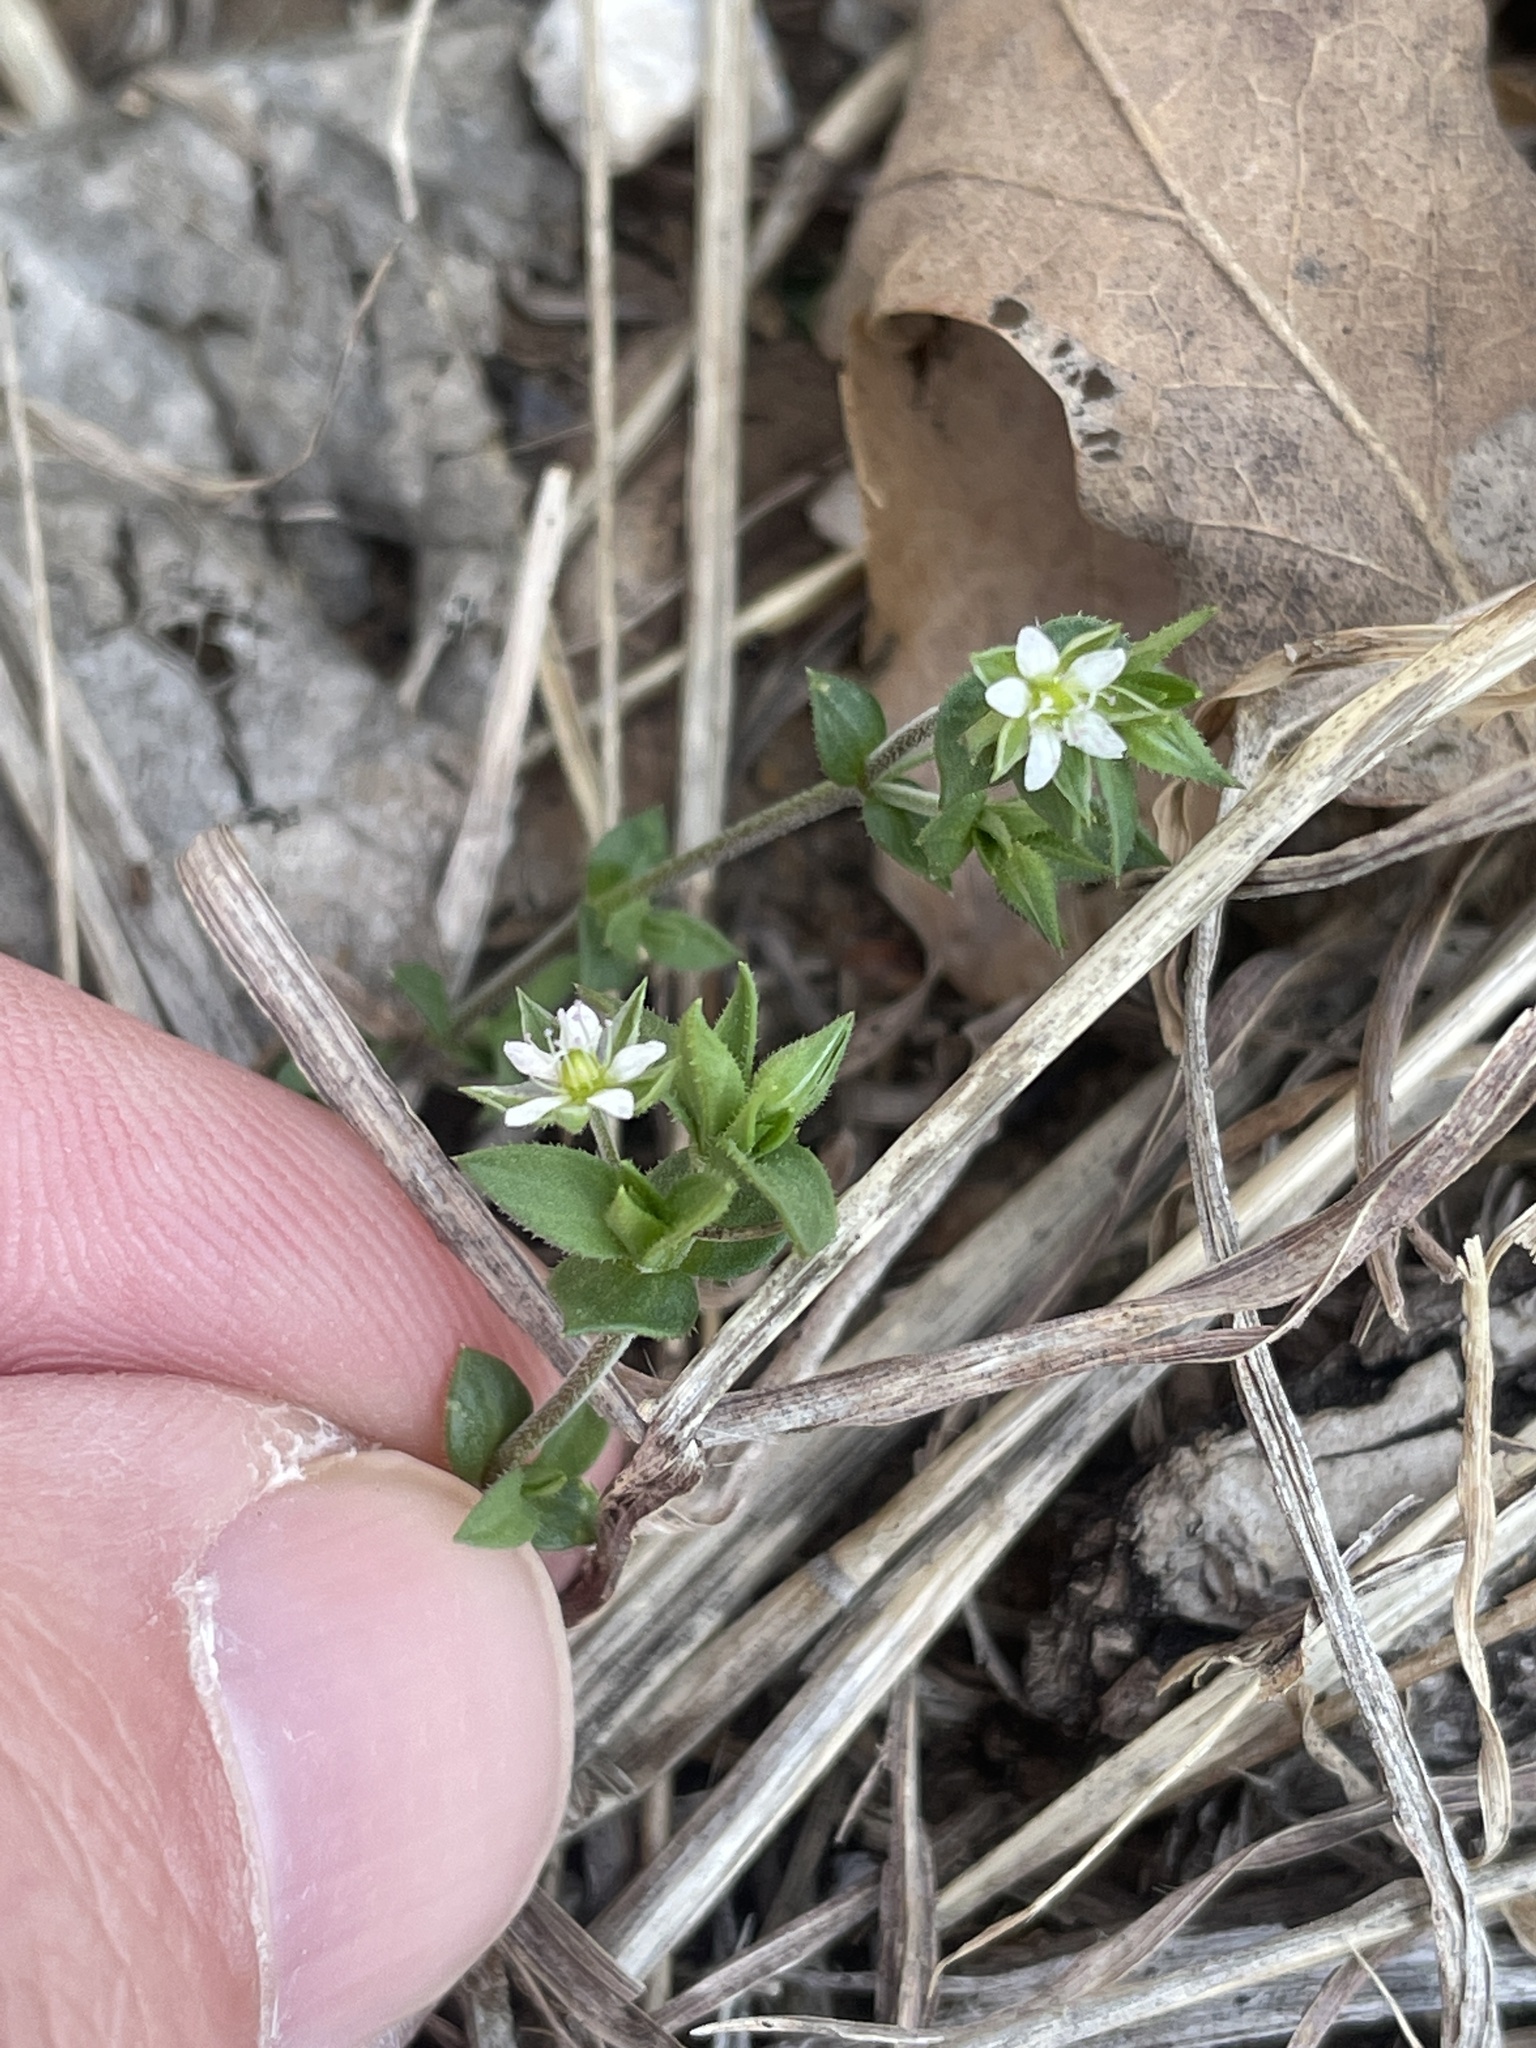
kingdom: Plantae
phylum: Tracheophyta
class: Magnoliopsida
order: Caryophyllales
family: Caryophyllaceae
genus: Arenaria
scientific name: Arenaria serpyllifolia
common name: Thyme-leaved sandwort
